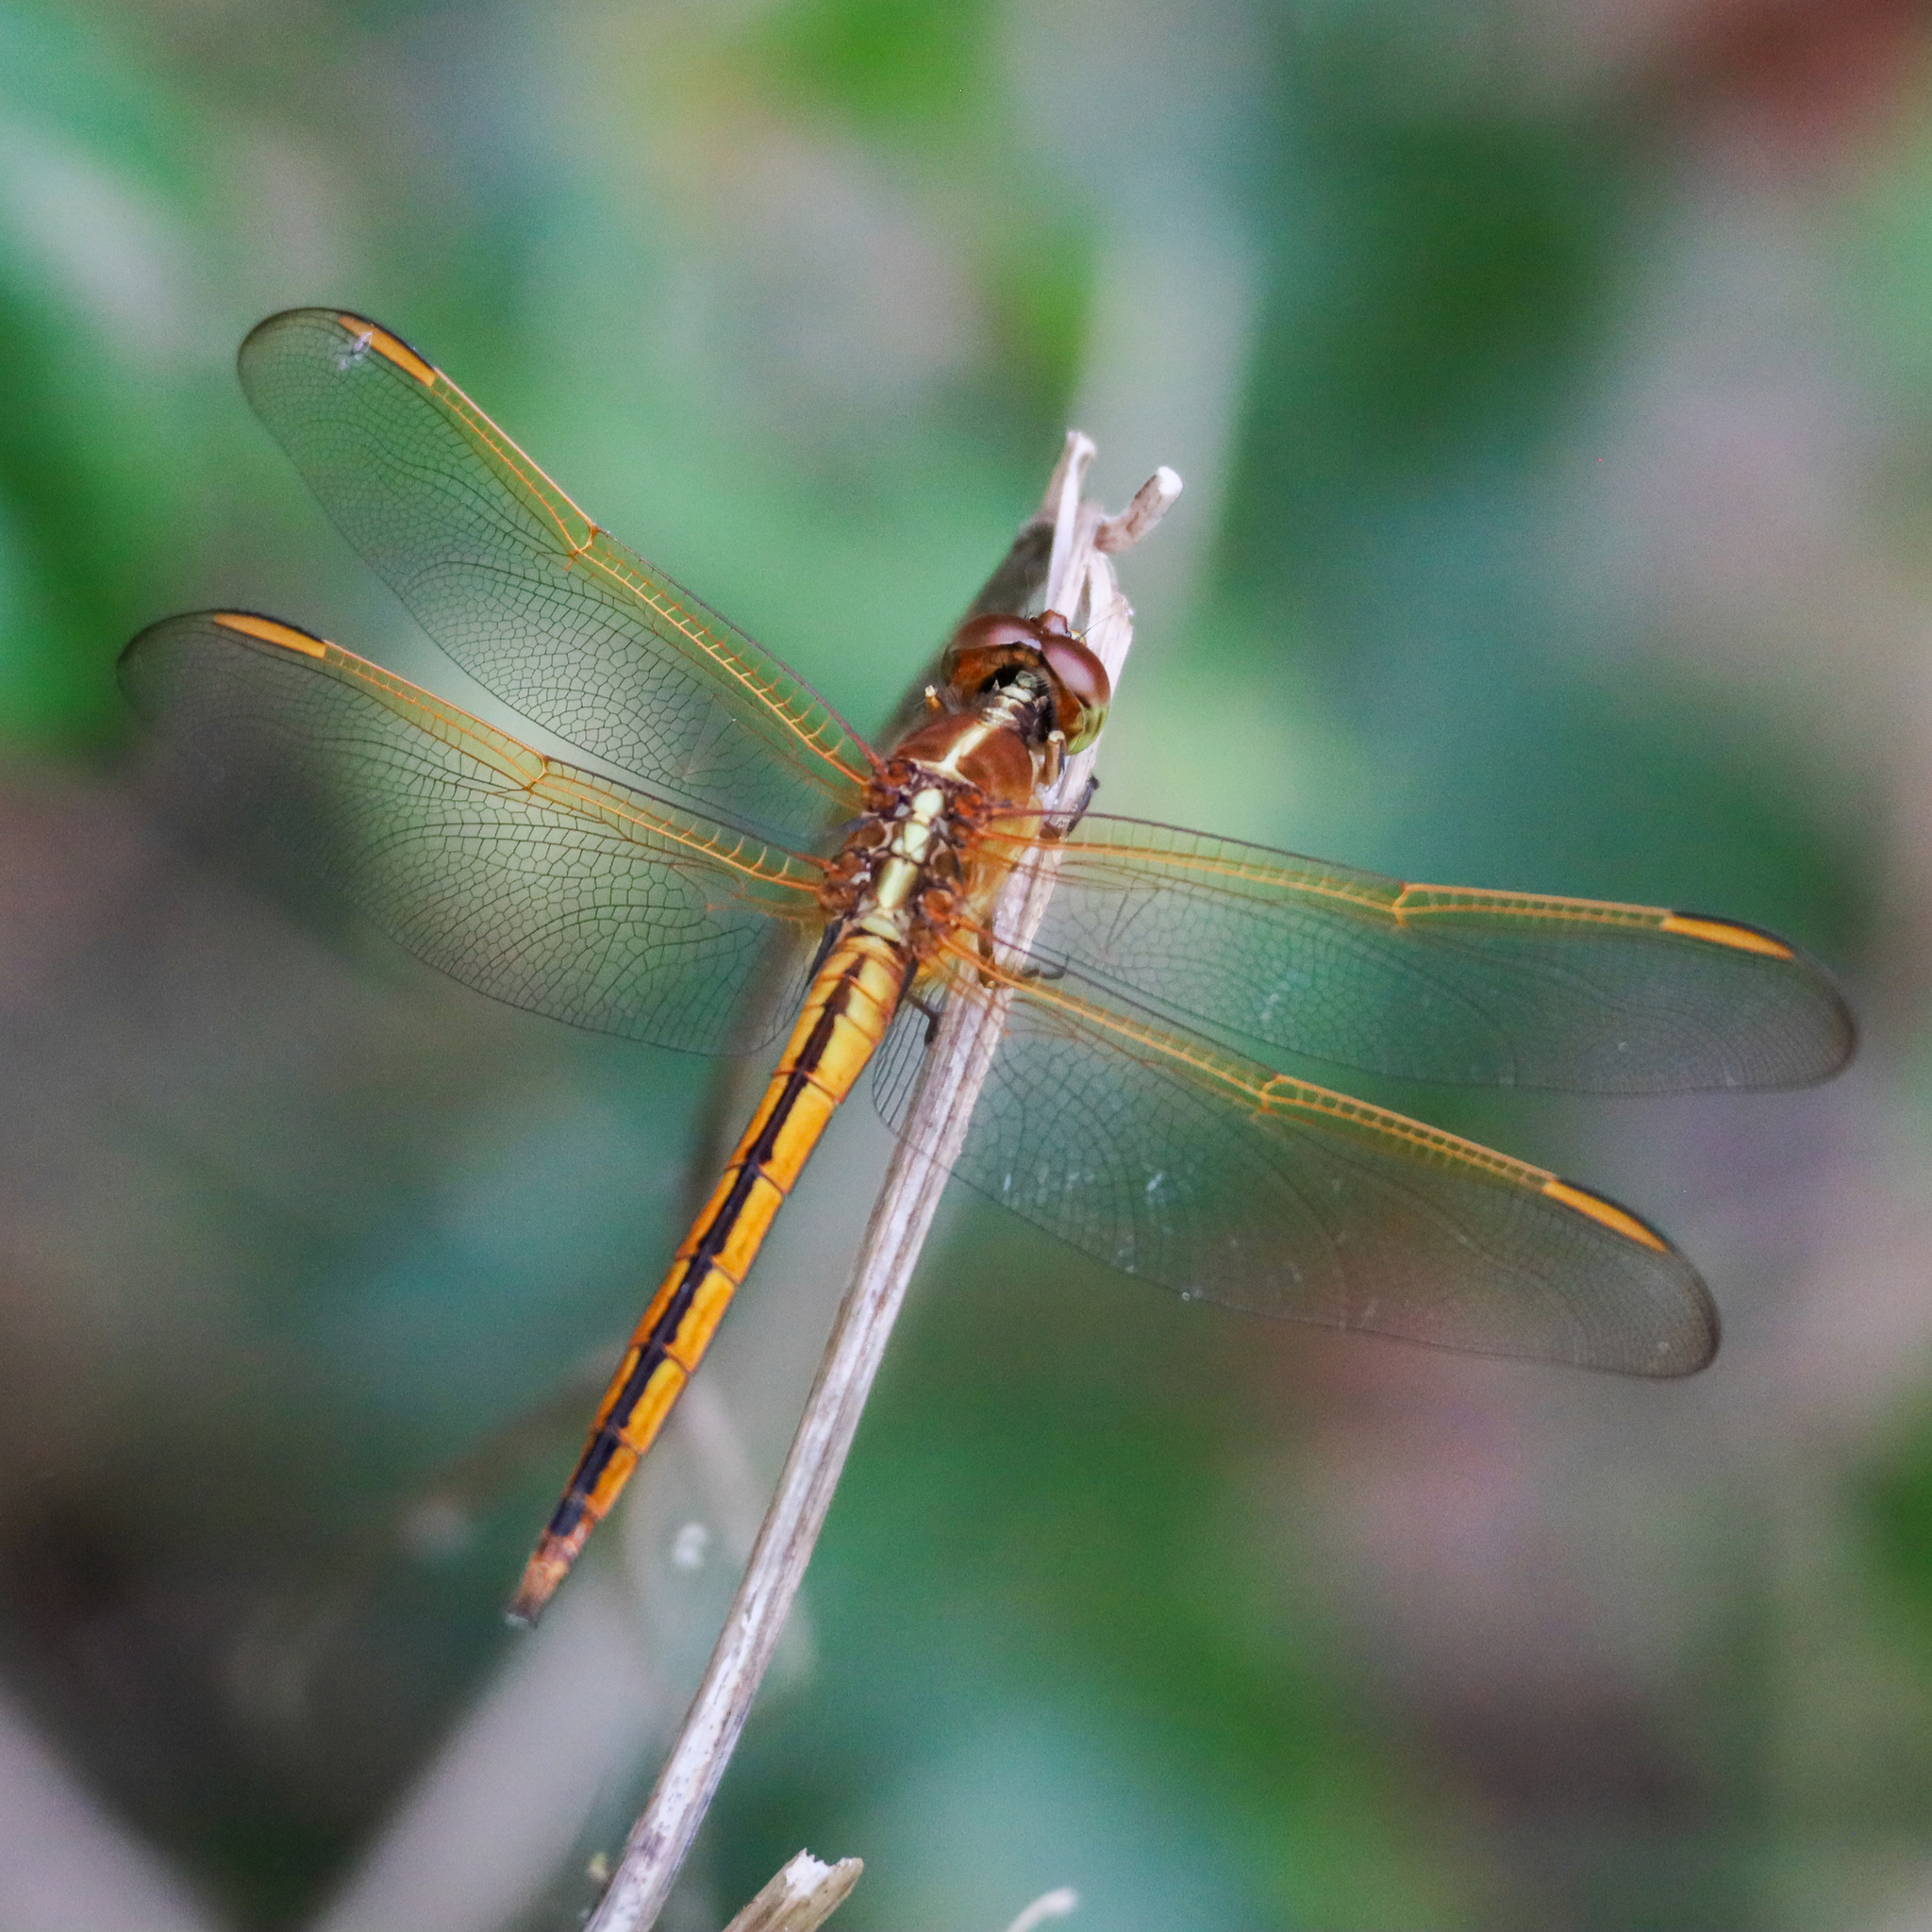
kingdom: Animalia
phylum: Arthropoda
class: Insecta
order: Odonata
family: Libellulidae
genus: Libellula
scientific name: Libellula needhami
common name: Needham's skimmer
